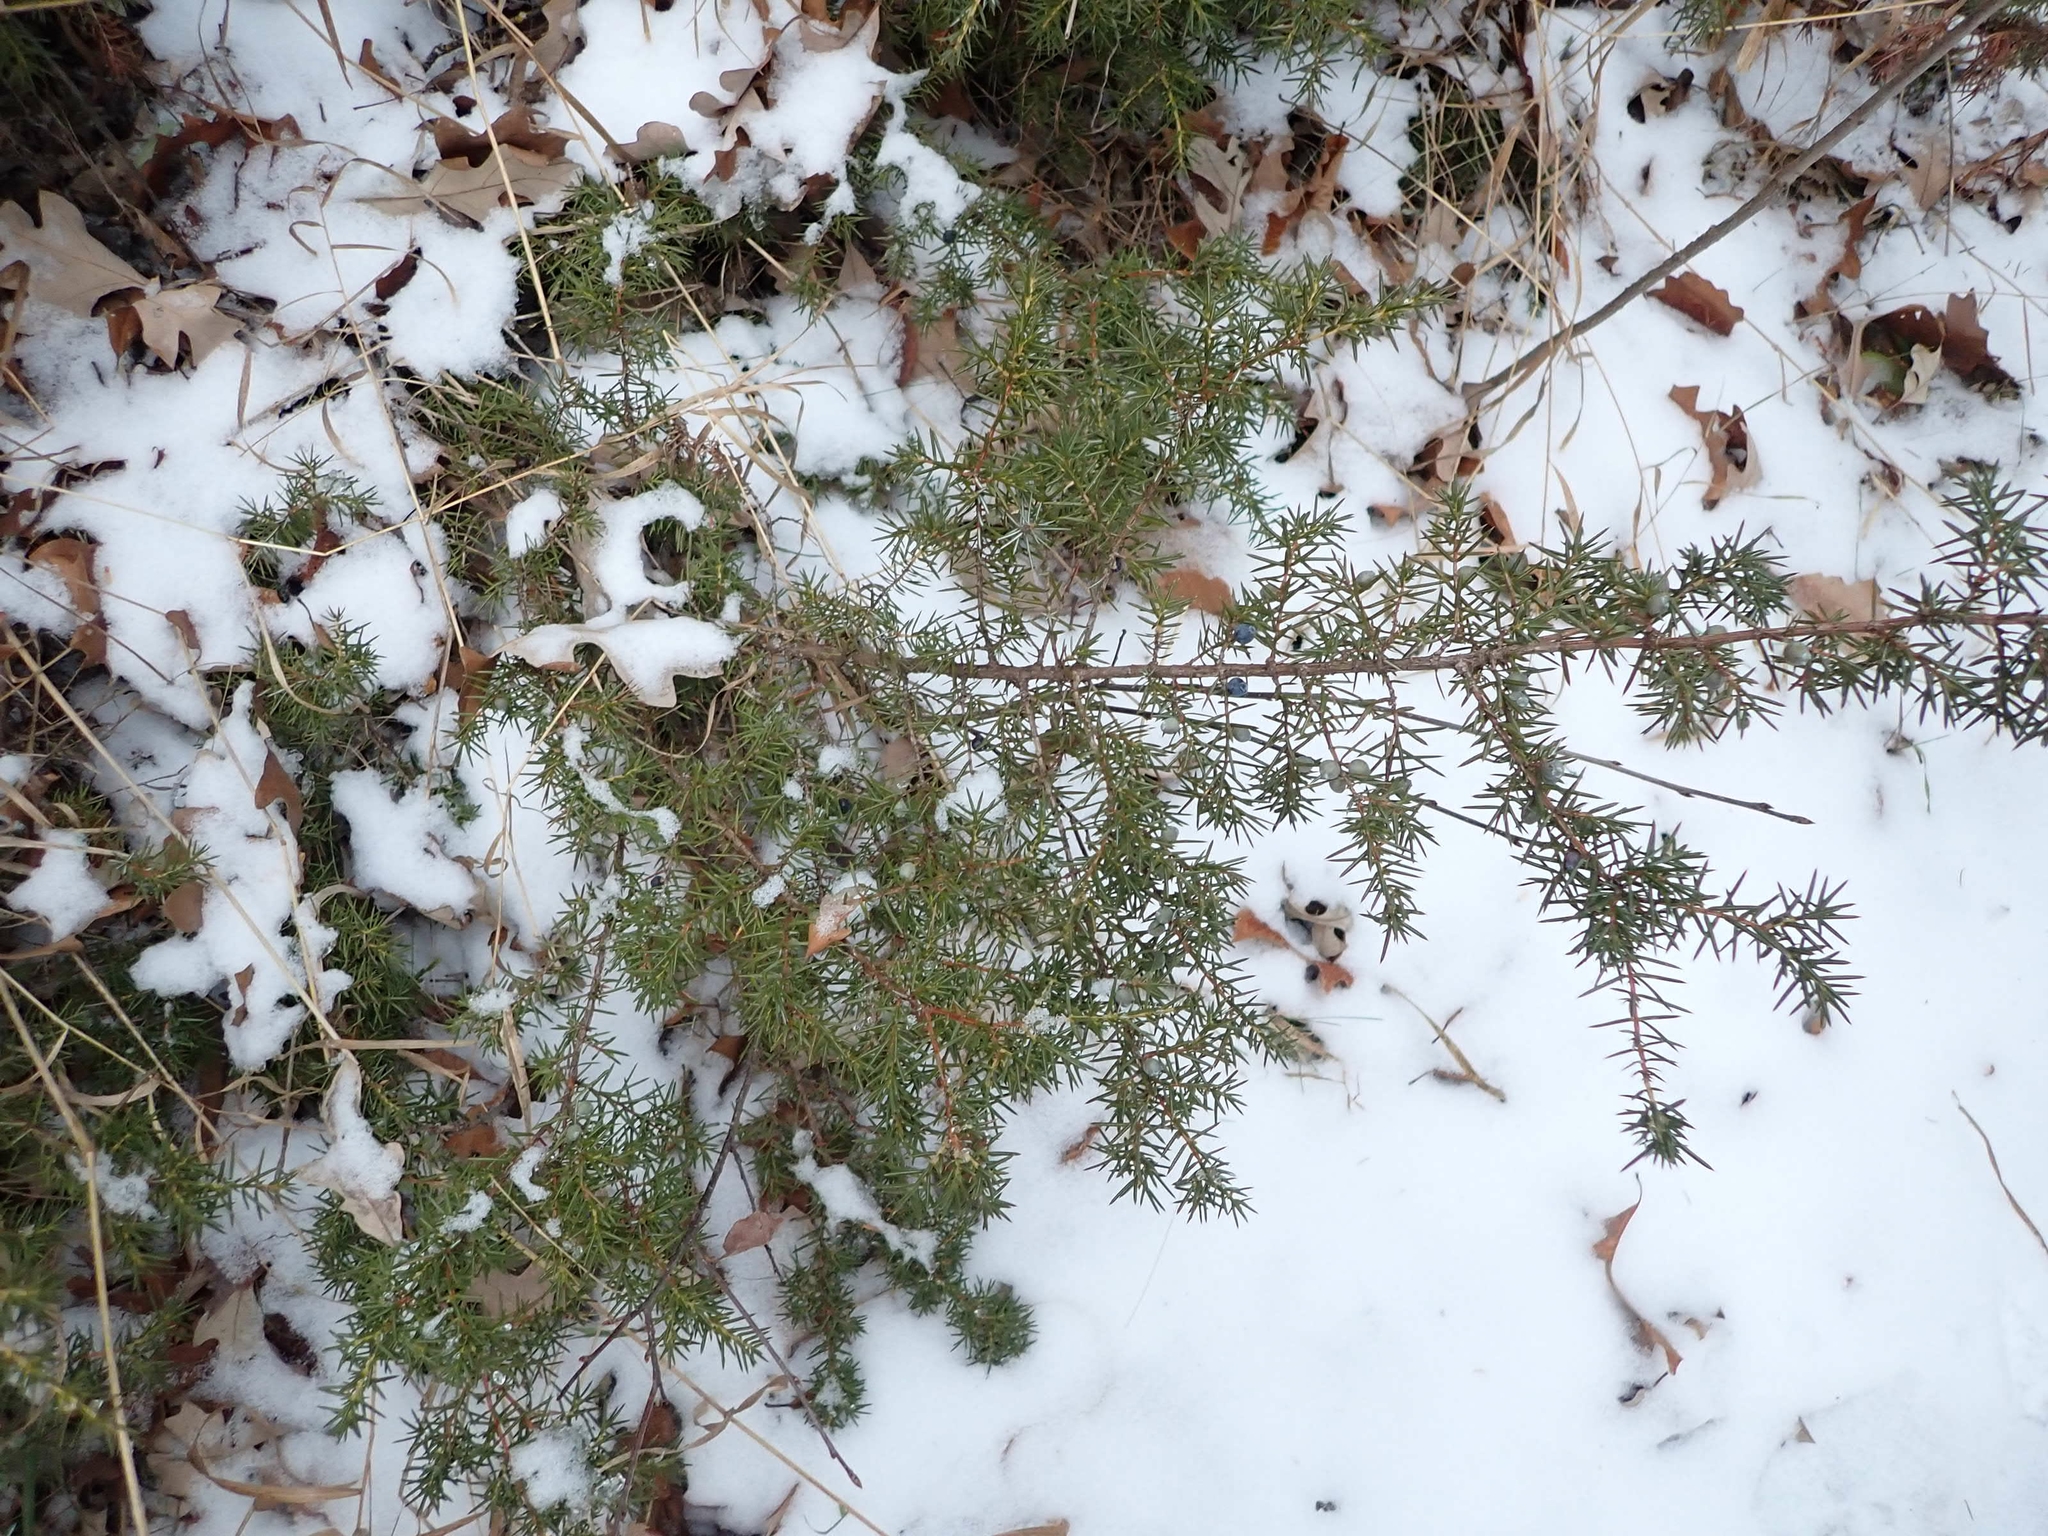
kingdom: Plantae
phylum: Tracheophyta
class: Pinopsida
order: Pinales
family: Cupressaceae
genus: Juniperus
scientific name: Juniperus communis
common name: Common juniper
